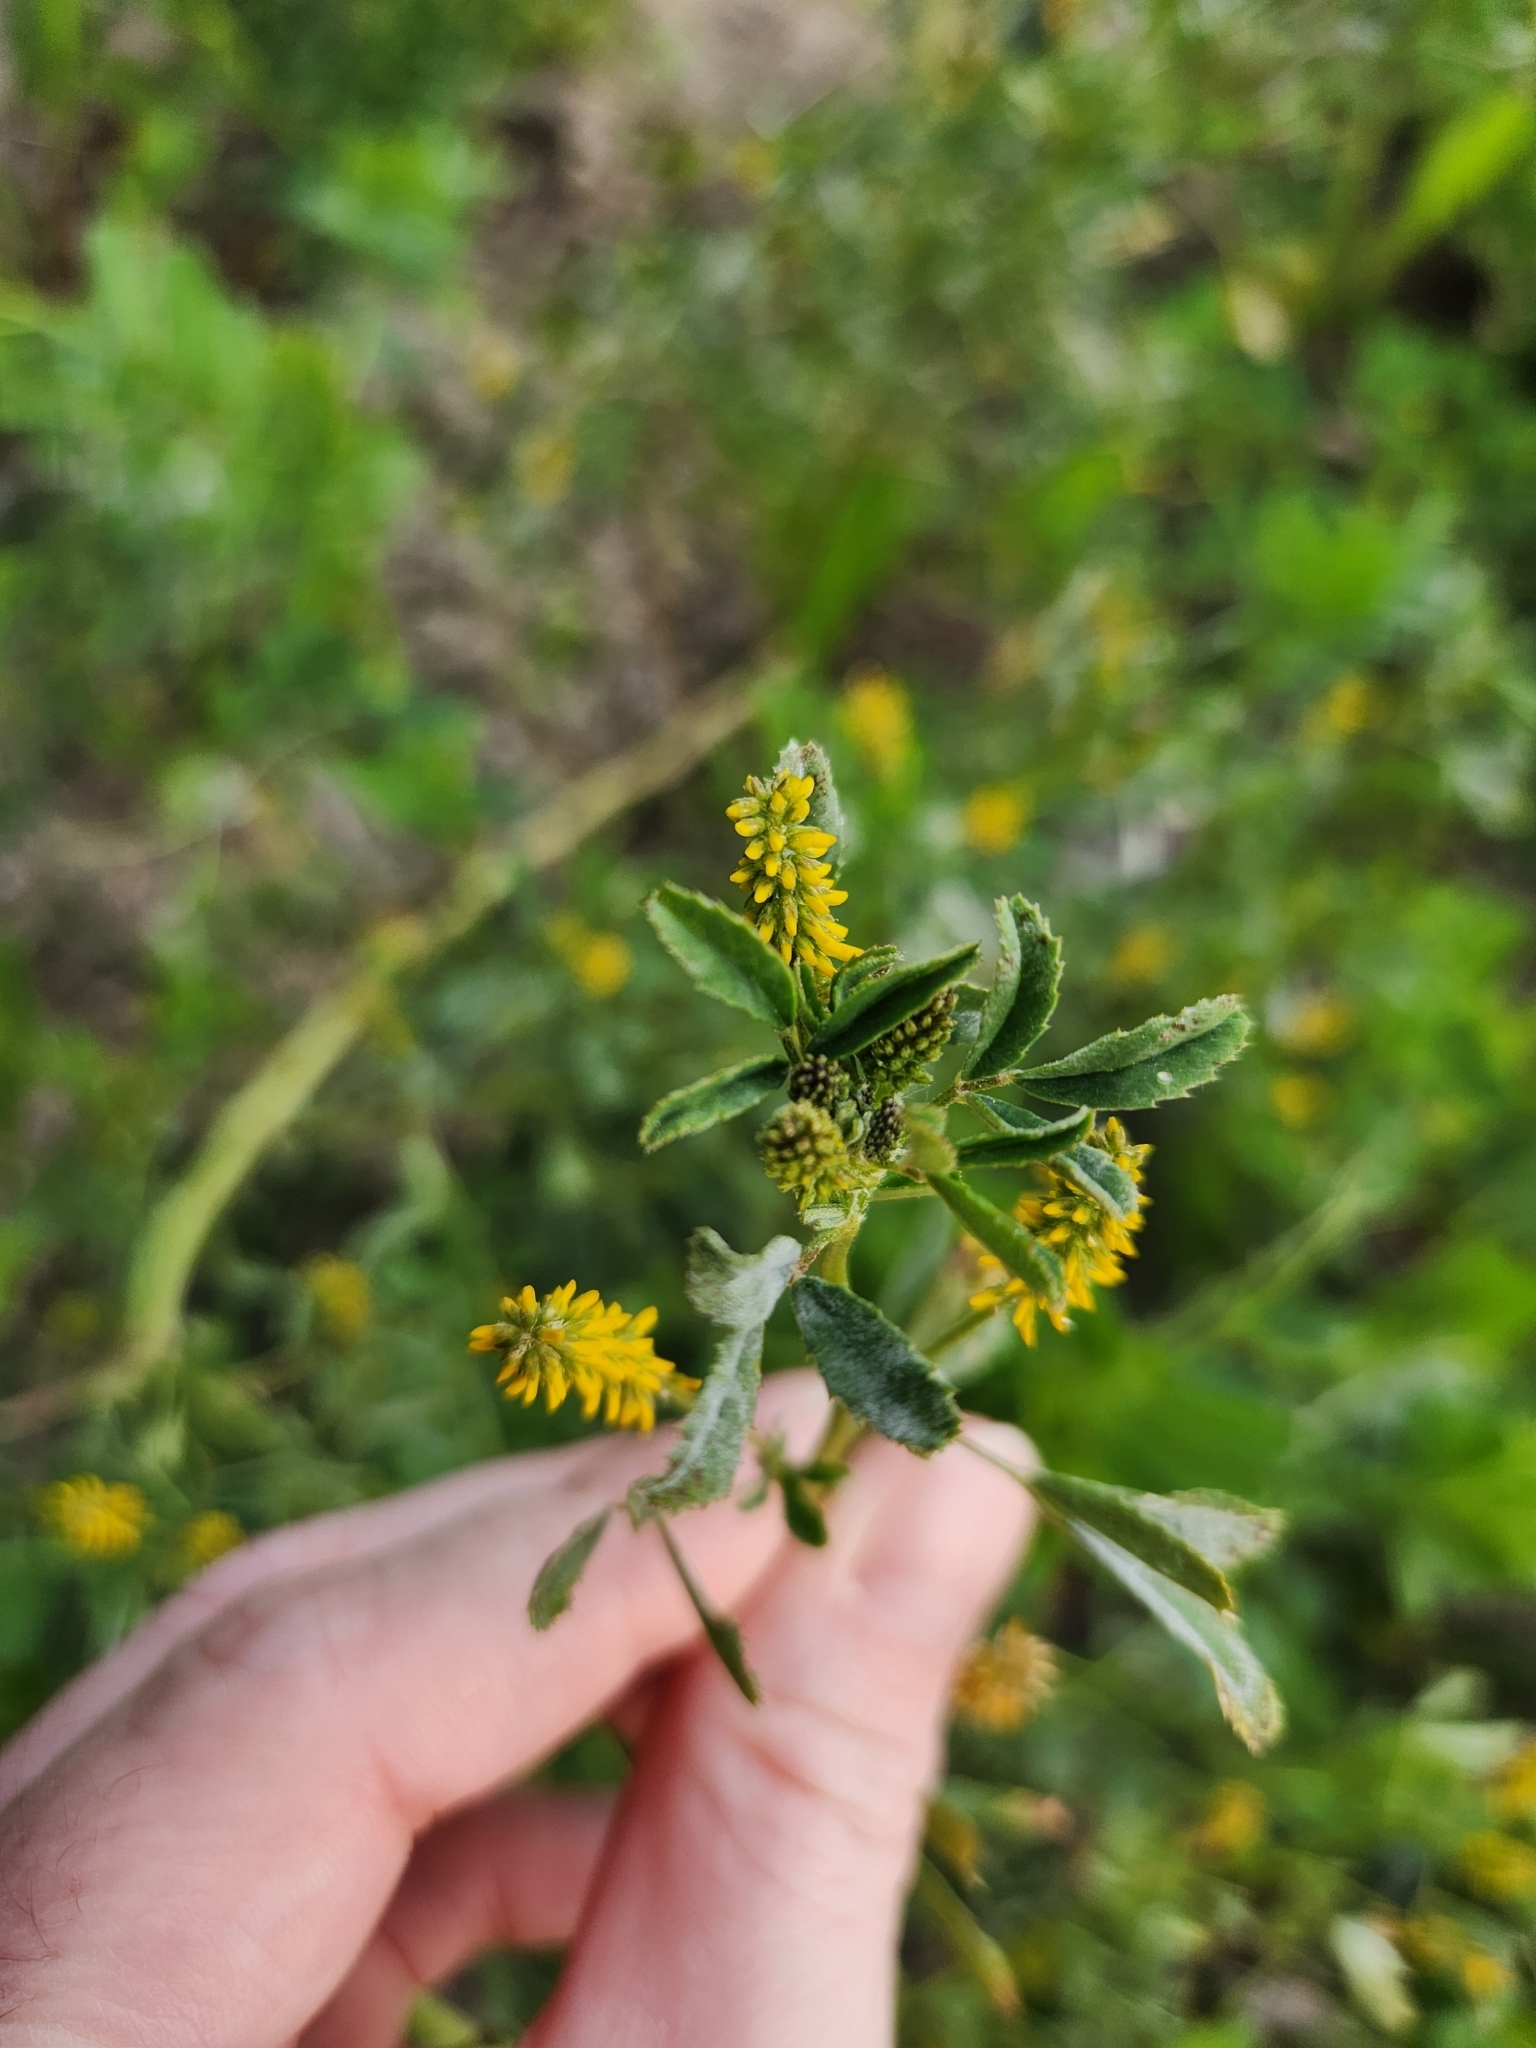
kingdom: Plantae
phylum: Tracheophyta
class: Magnoliopsida
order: Fabales
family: Fabaceae
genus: Melilotus
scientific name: Melilotus indicus
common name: Small melilot
